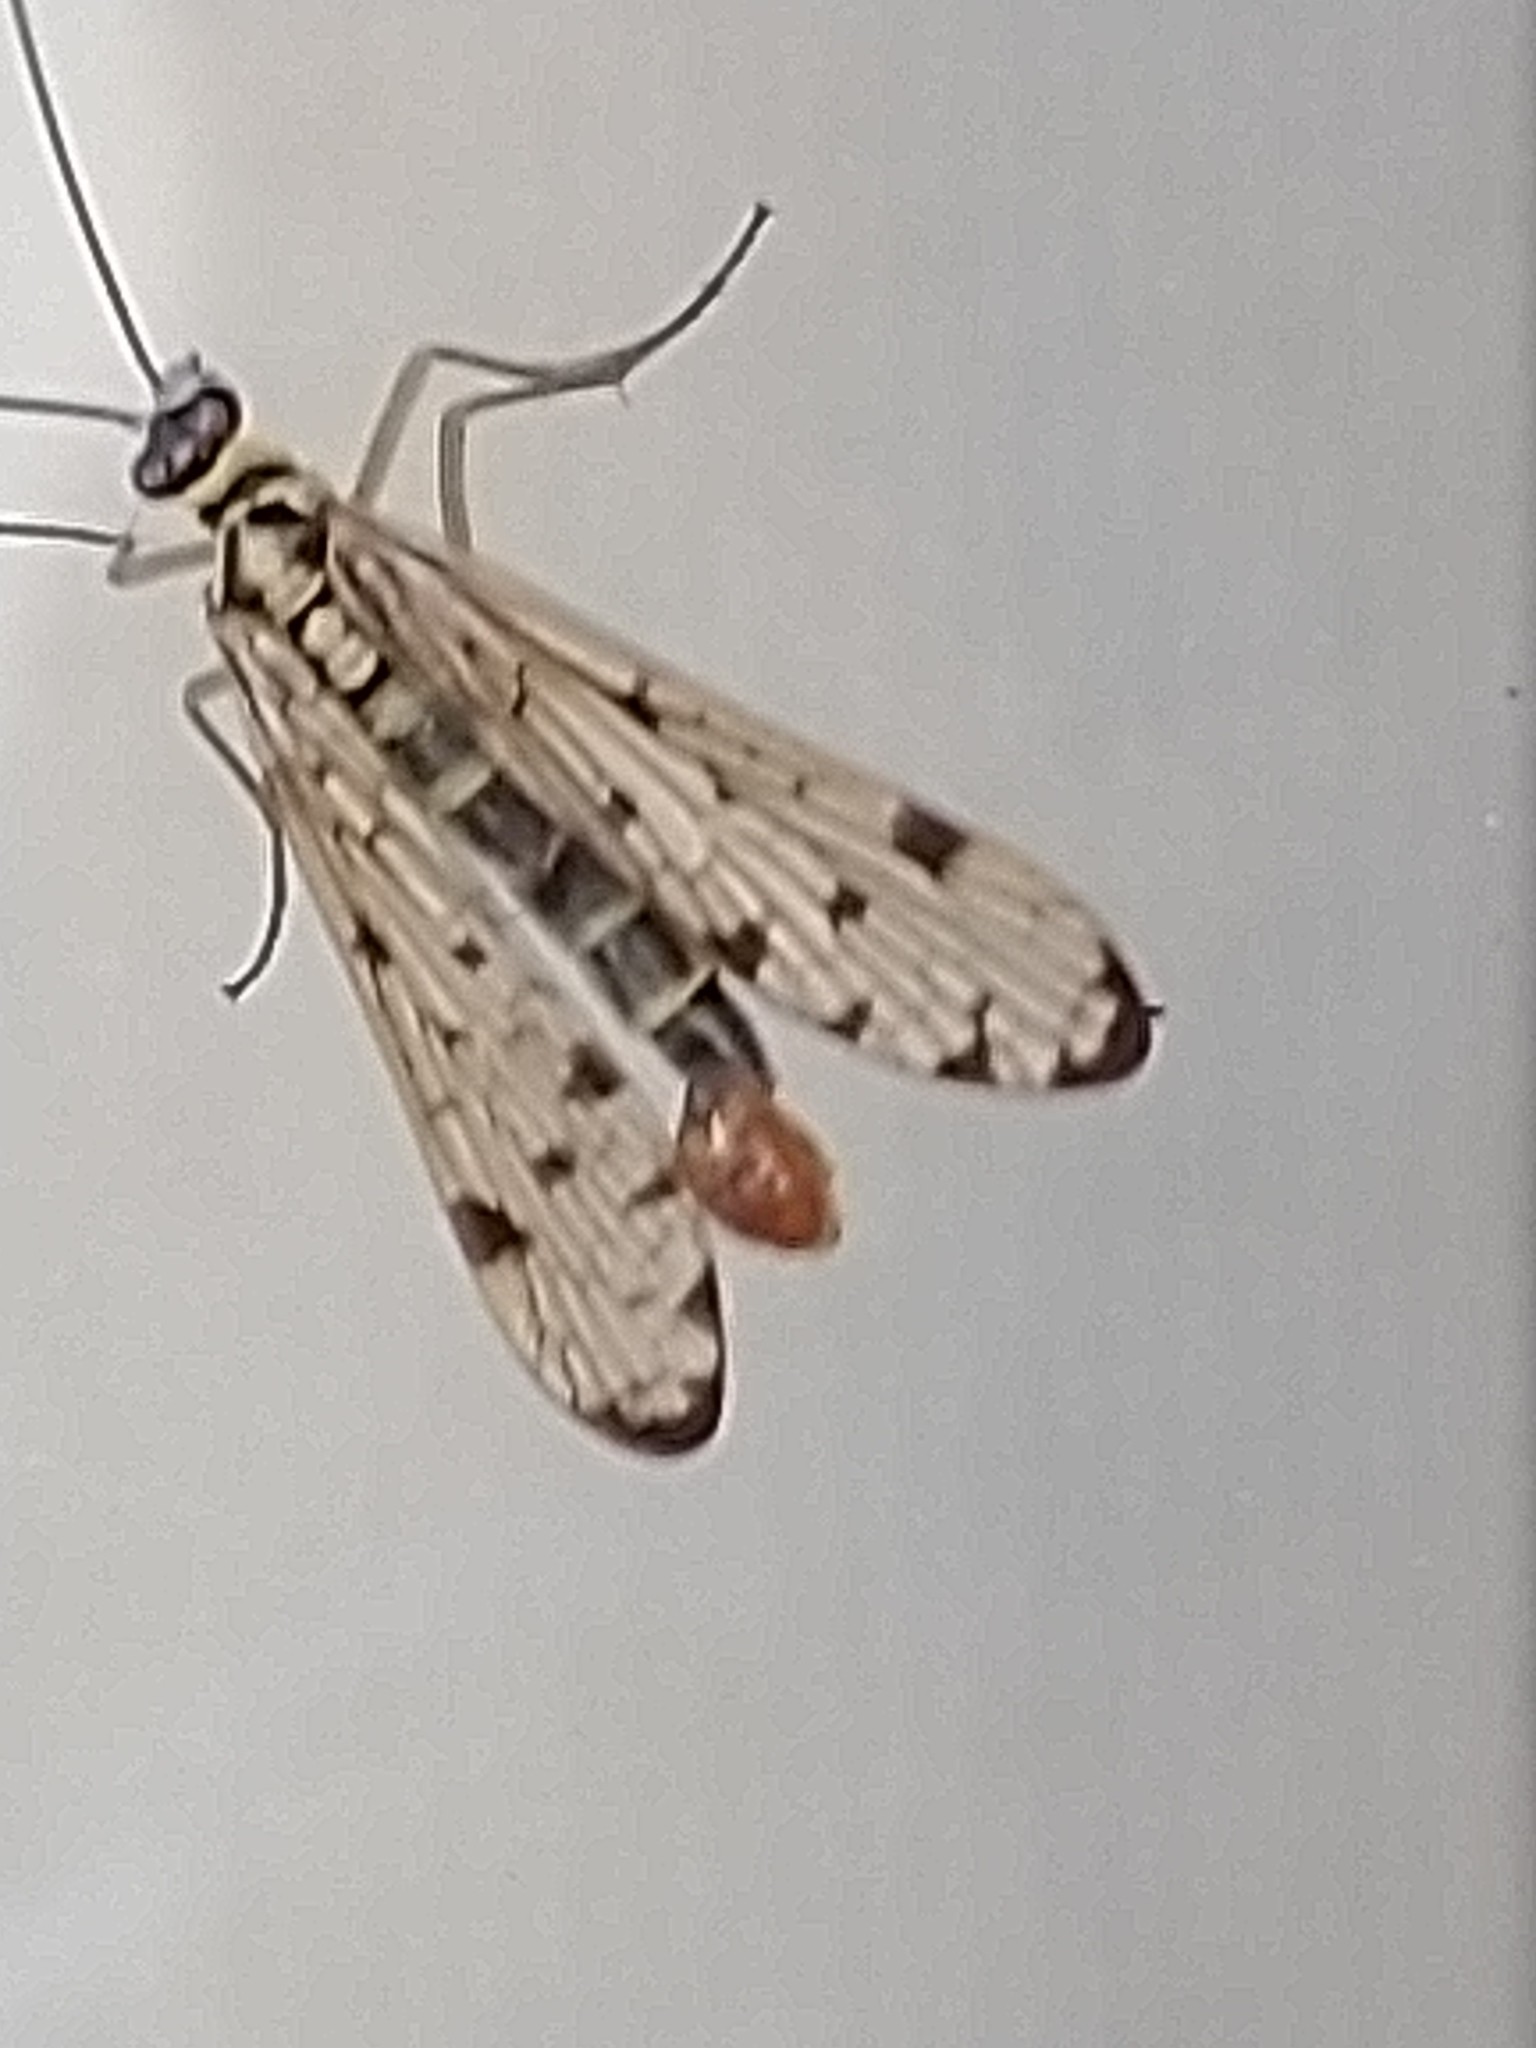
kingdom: Animalia
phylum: Arthropoda
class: Insecta
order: Mecoptera
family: Panorpidae
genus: Panorpa
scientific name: Panorpa germanica
